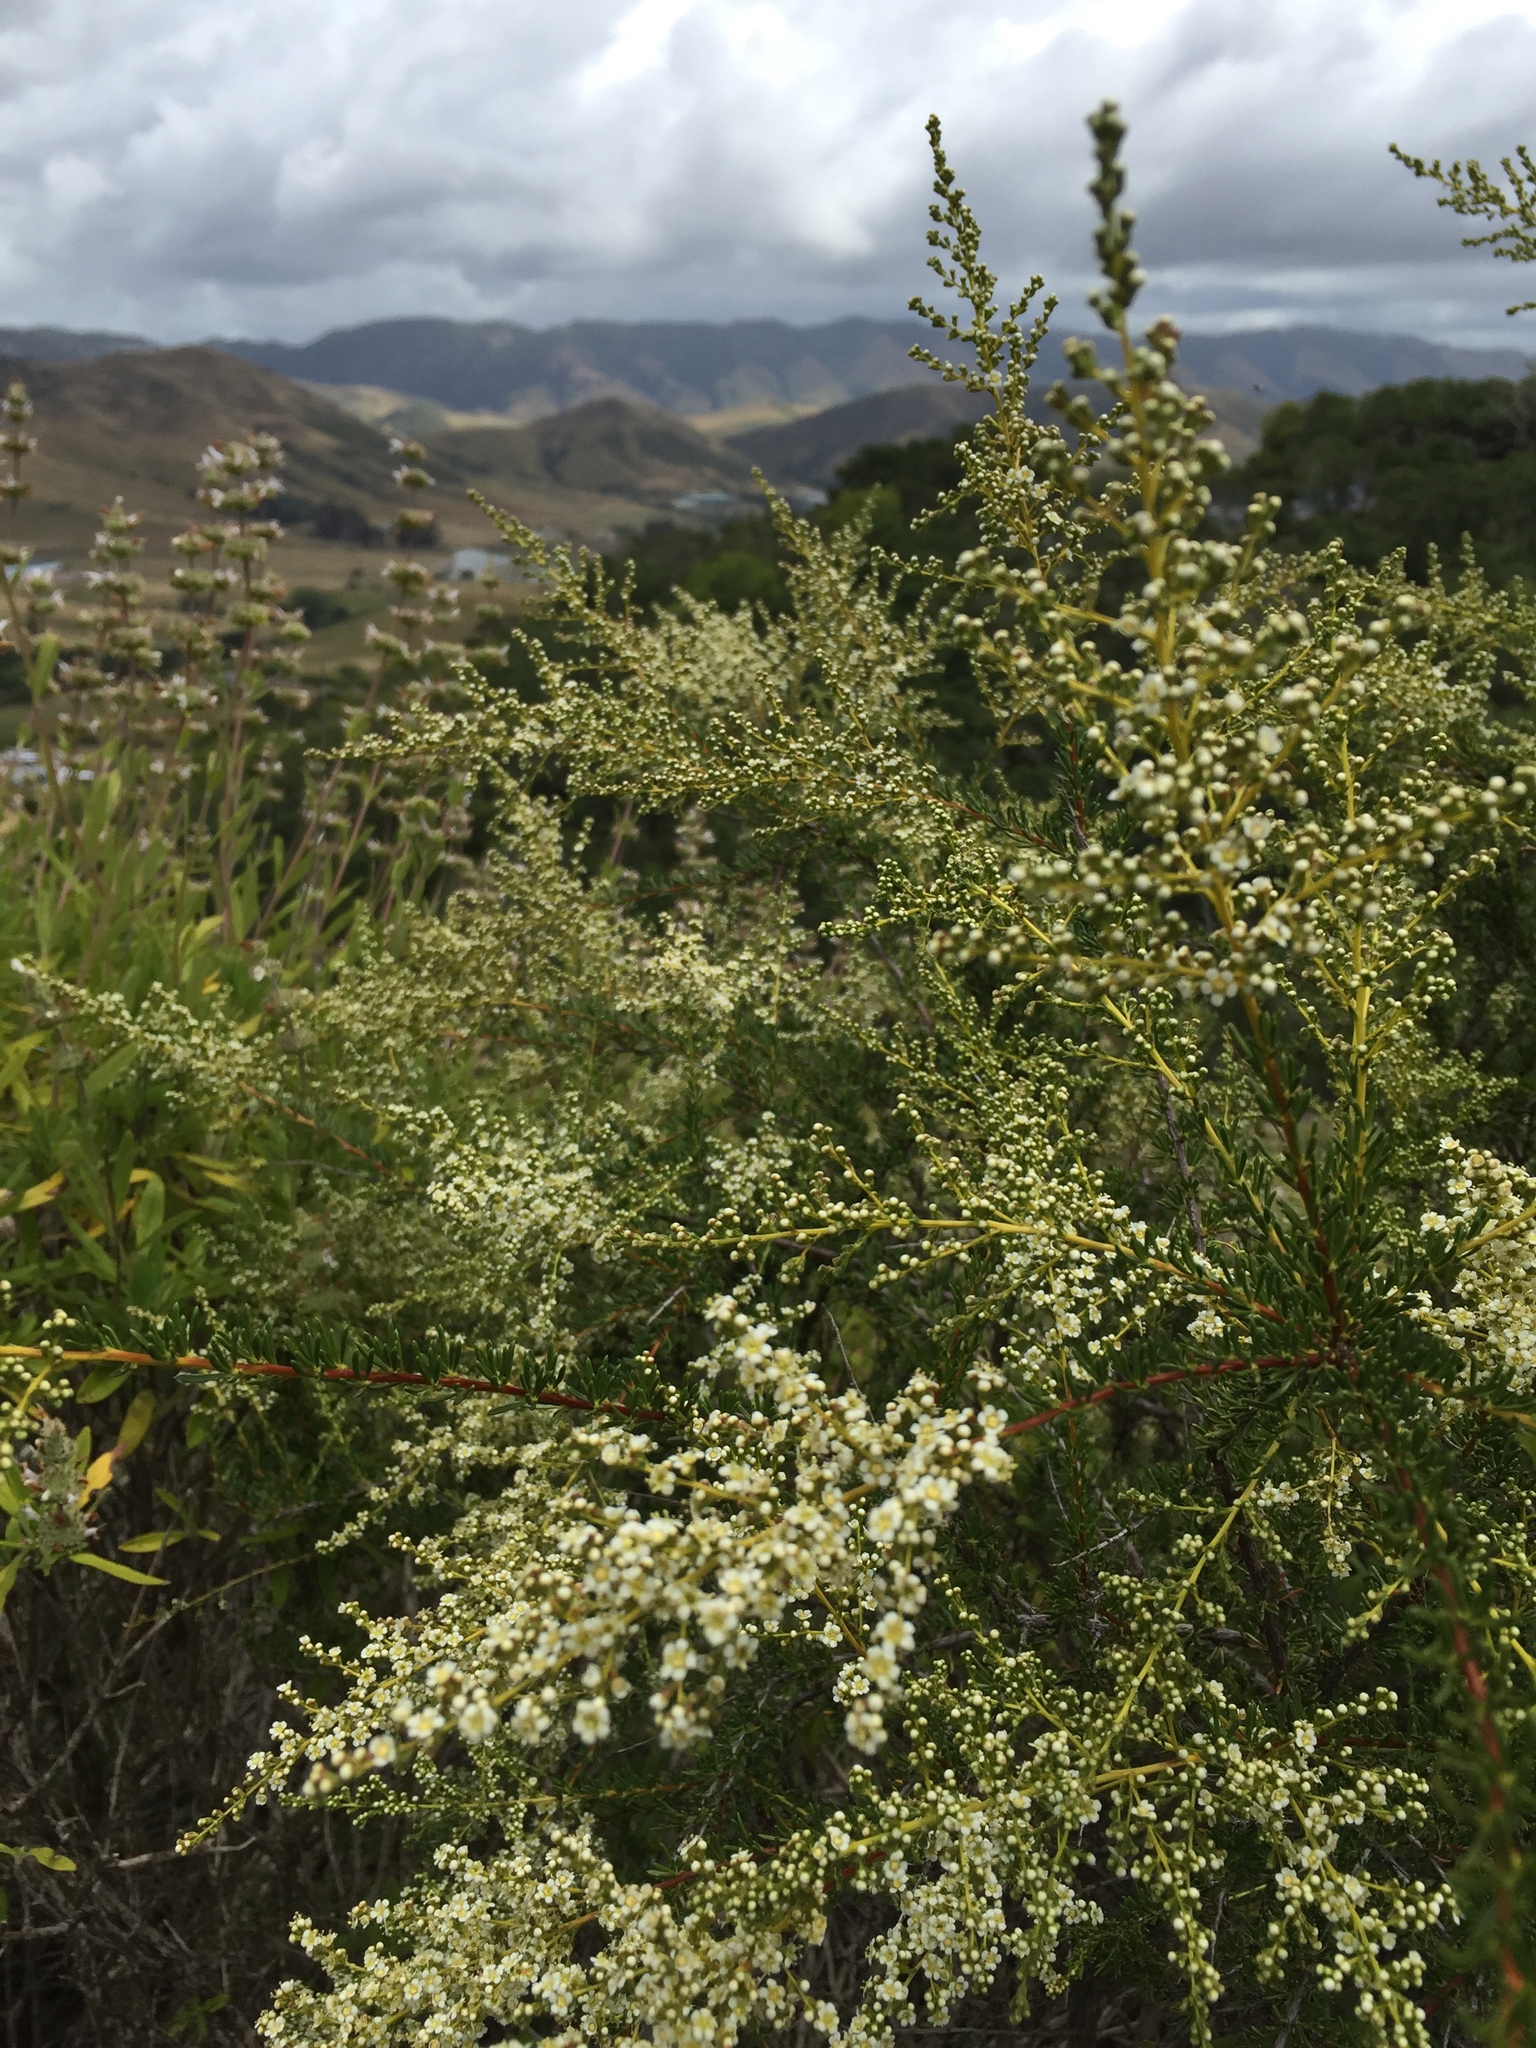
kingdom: Plantae
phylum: Tracheophyta
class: Magnoliopsida
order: Rosales
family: Rosaceae
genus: Adenostoma
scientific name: Adenostoma fasciculatum
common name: Chamise
